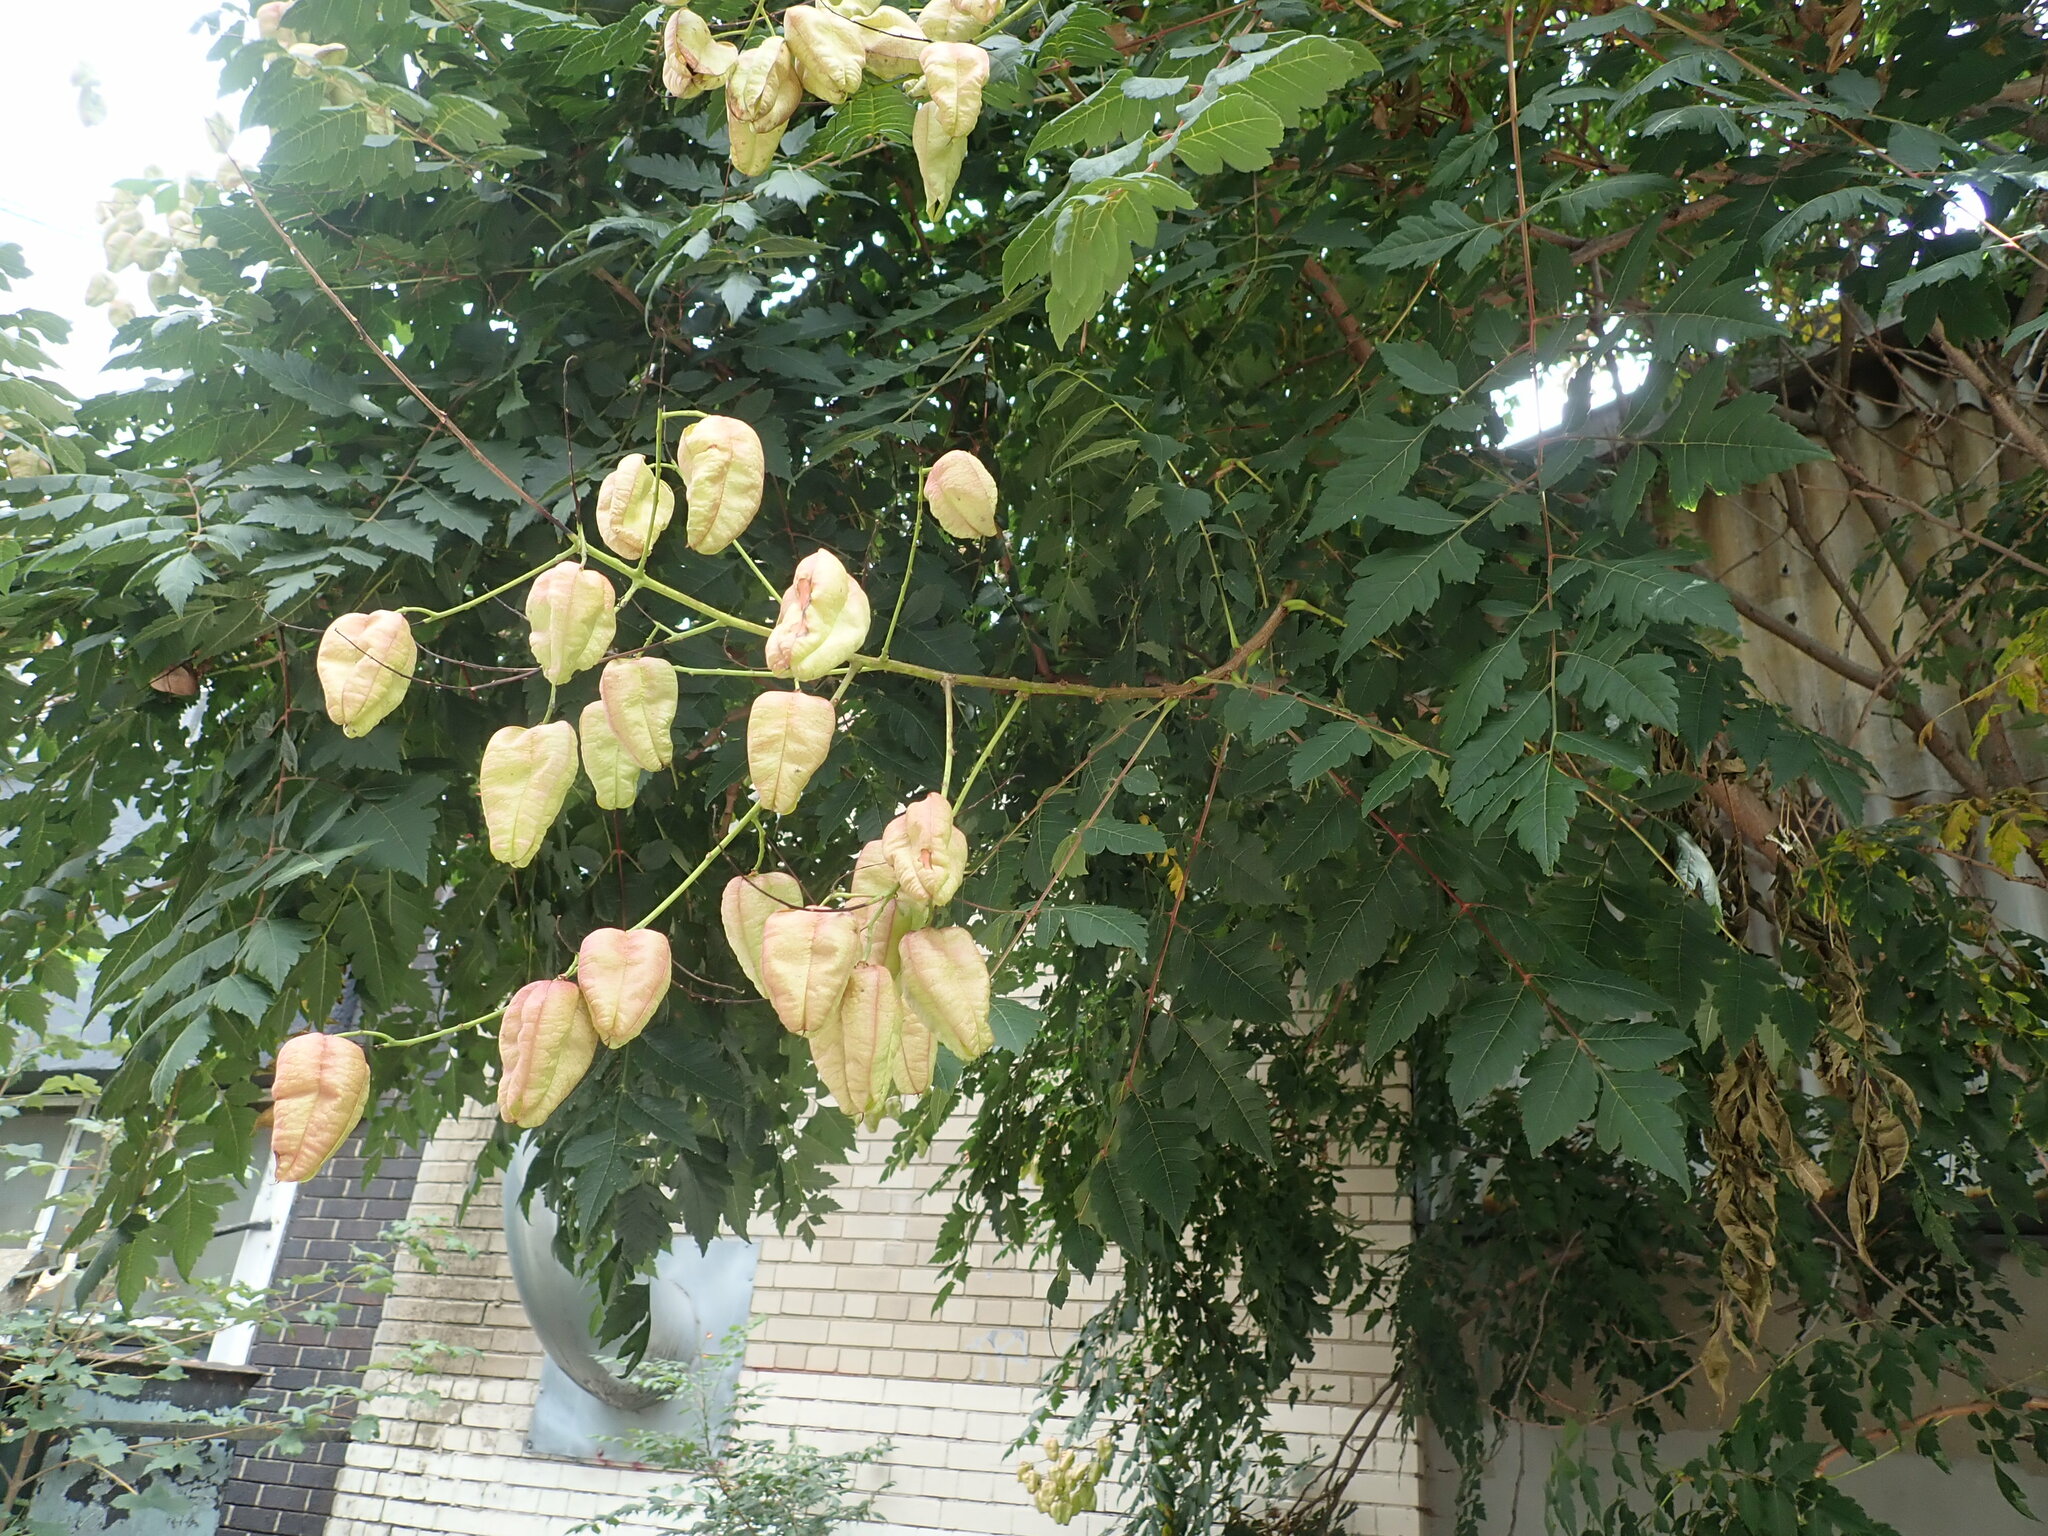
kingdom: Plantae
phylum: Tracheophyta
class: Magnoliopsida
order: Sapindales
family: Sapindaceae
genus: Koelreuteria
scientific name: Koelreuteria paniculata
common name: Pride-of-india
